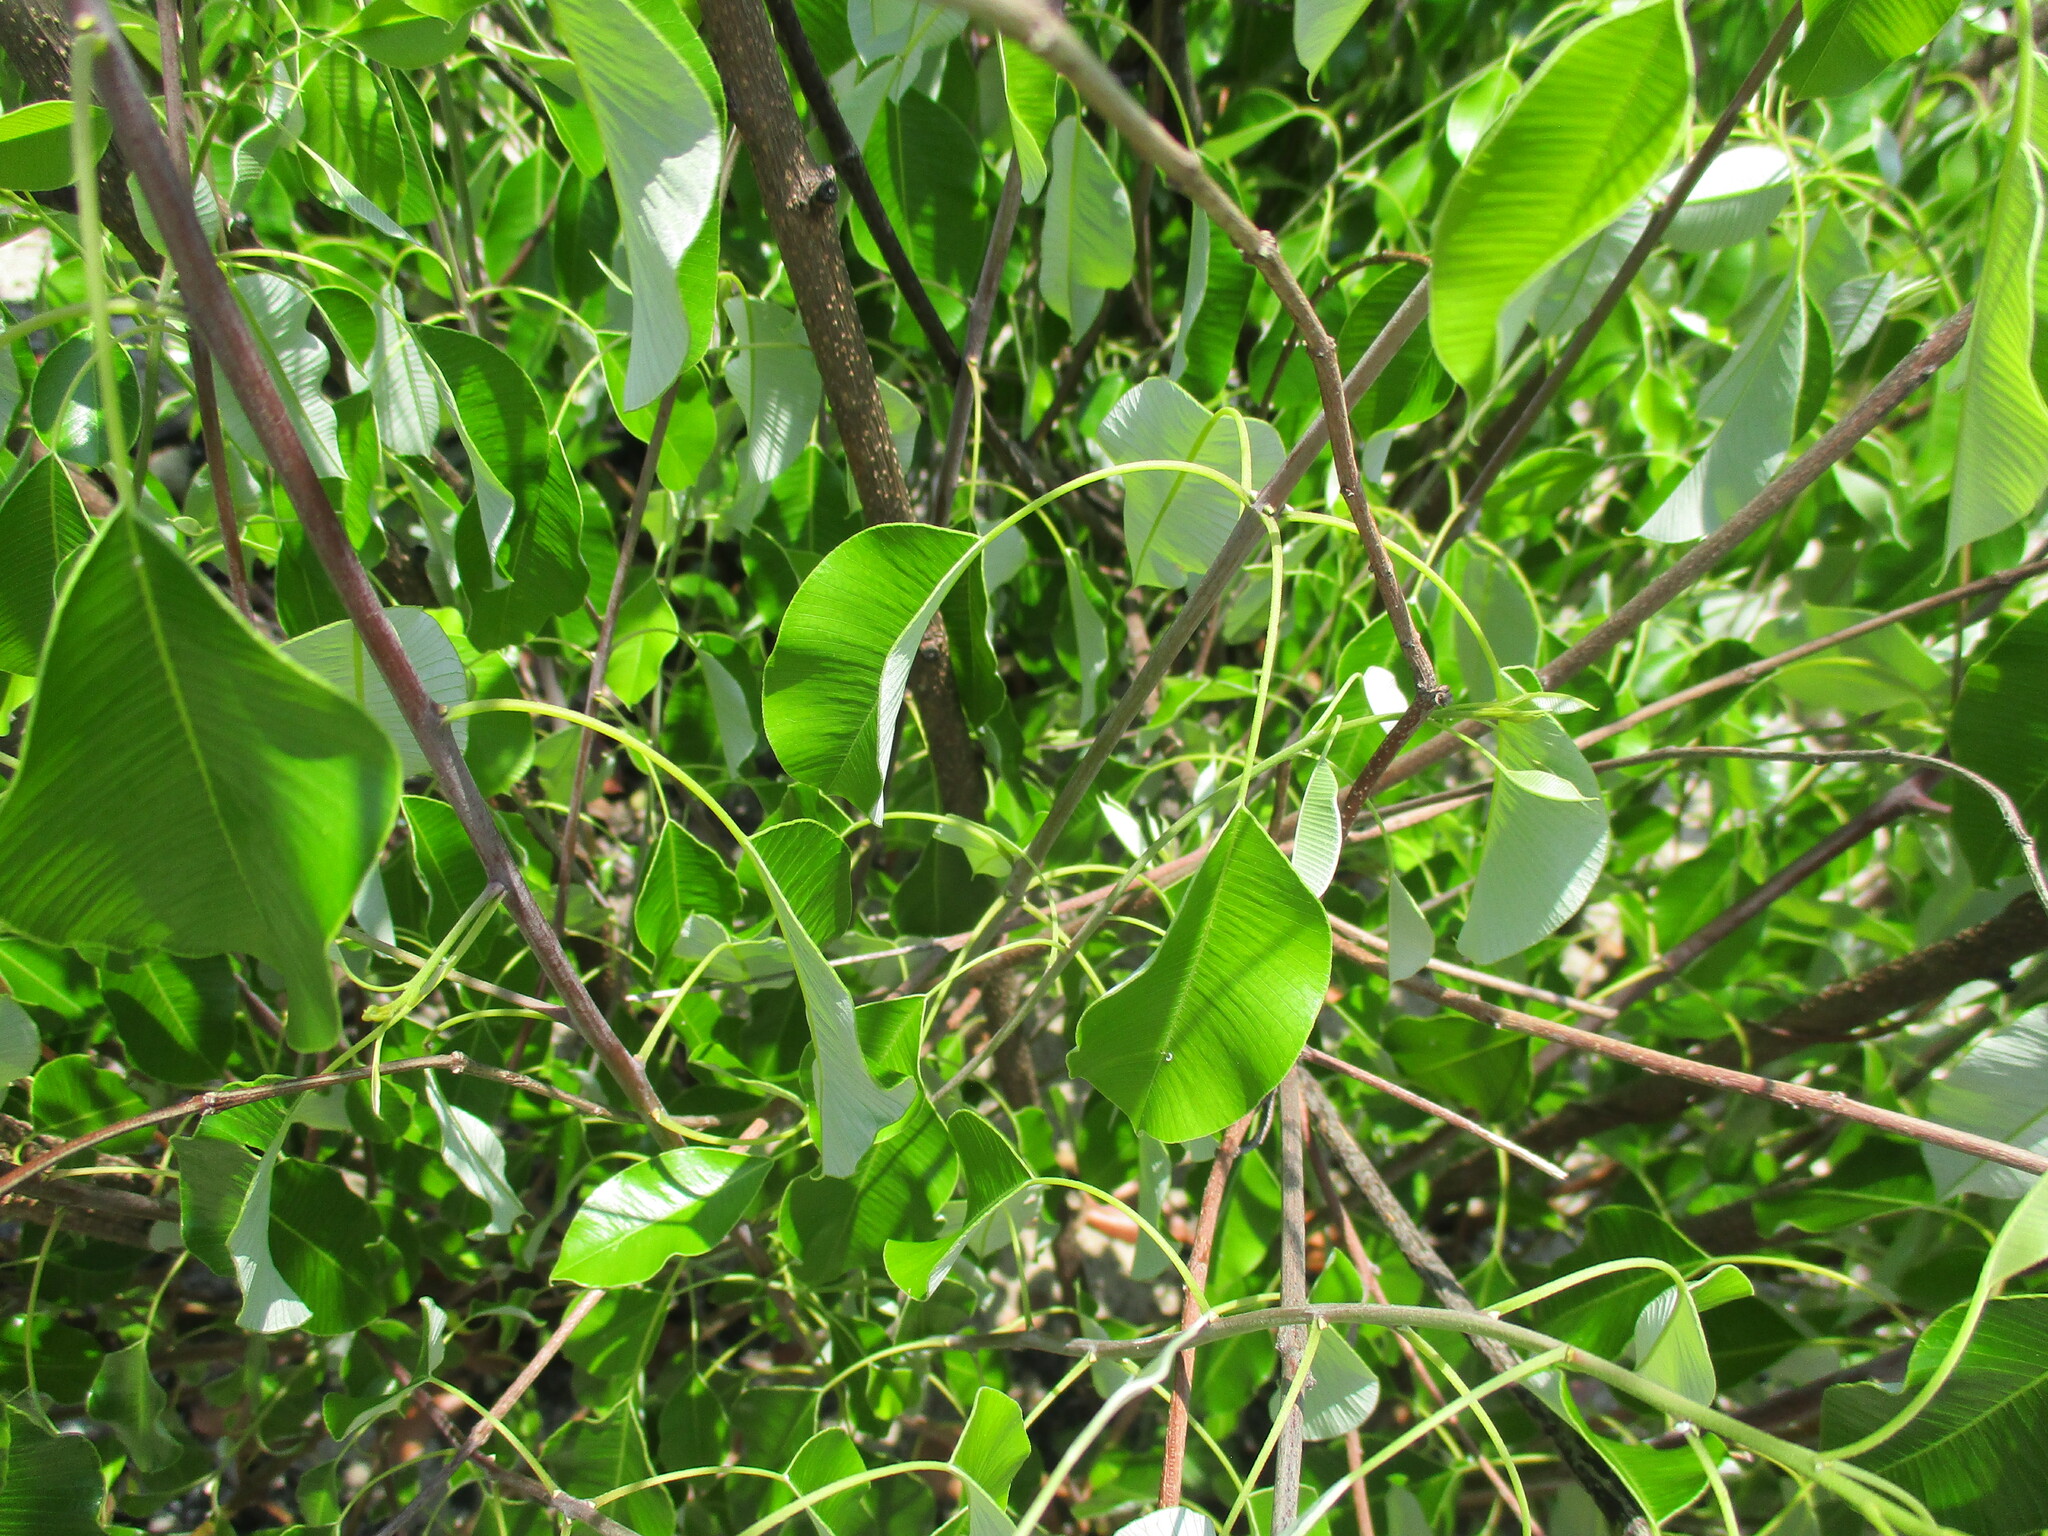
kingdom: Plantae
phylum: Tracheophyta
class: Magnoliopsida
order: Gentianales
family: Apocynaceae
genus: Diplorhynchus
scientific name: Diplorhynchus condylocarpon
